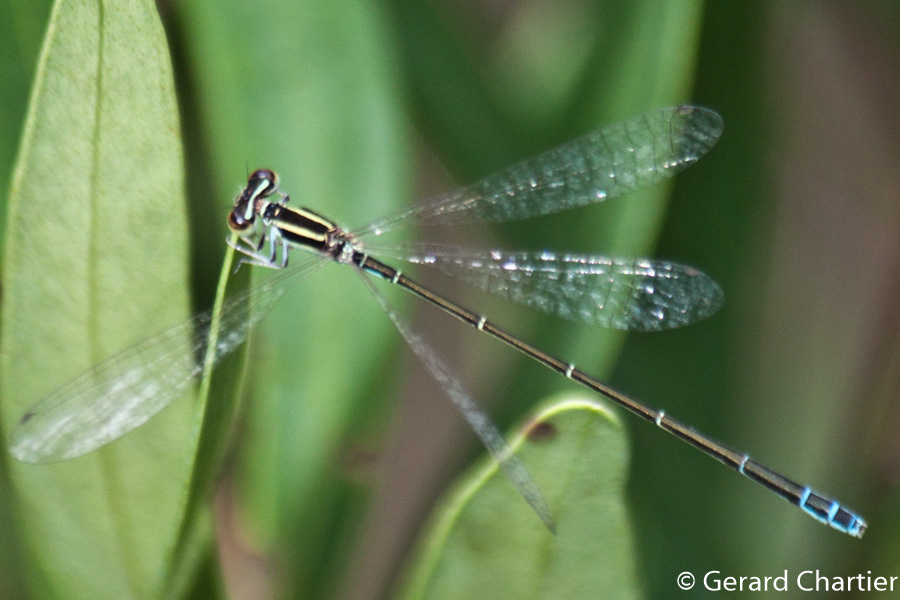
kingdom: Animalia
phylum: Arthropoda
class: Insecta
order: Odonata
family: Coenagrionidae
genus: Aciagrion
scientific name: Aciagrion borneense
